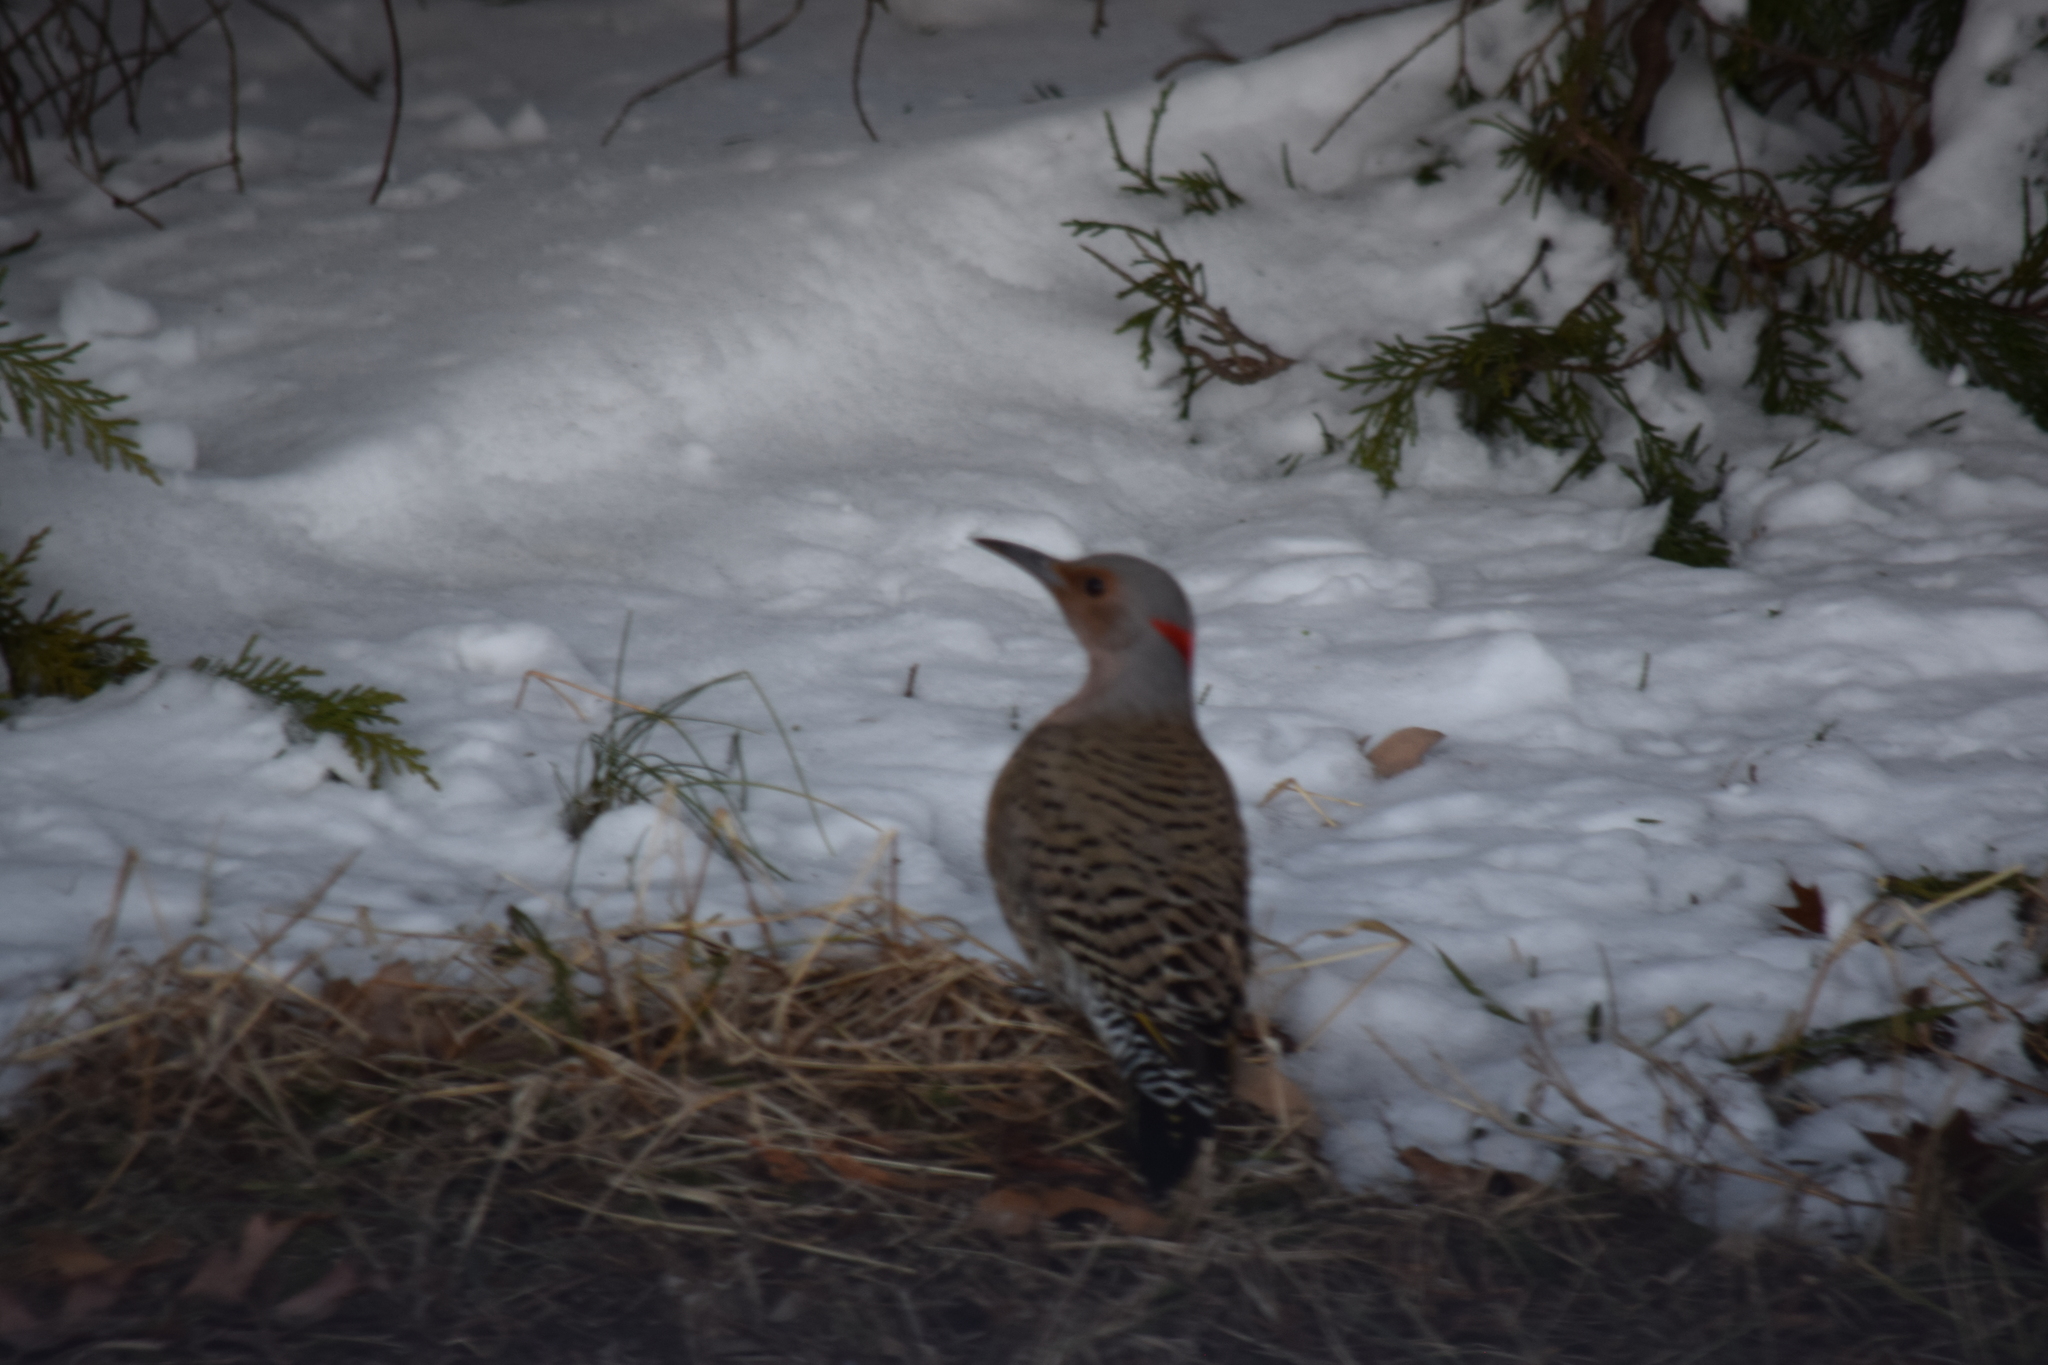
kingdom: Animalia
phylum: Chordata
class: Aves
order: Piciformes
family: Picidae
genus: Colaptes
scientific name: Colaptes auratus
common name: Northern flicker
